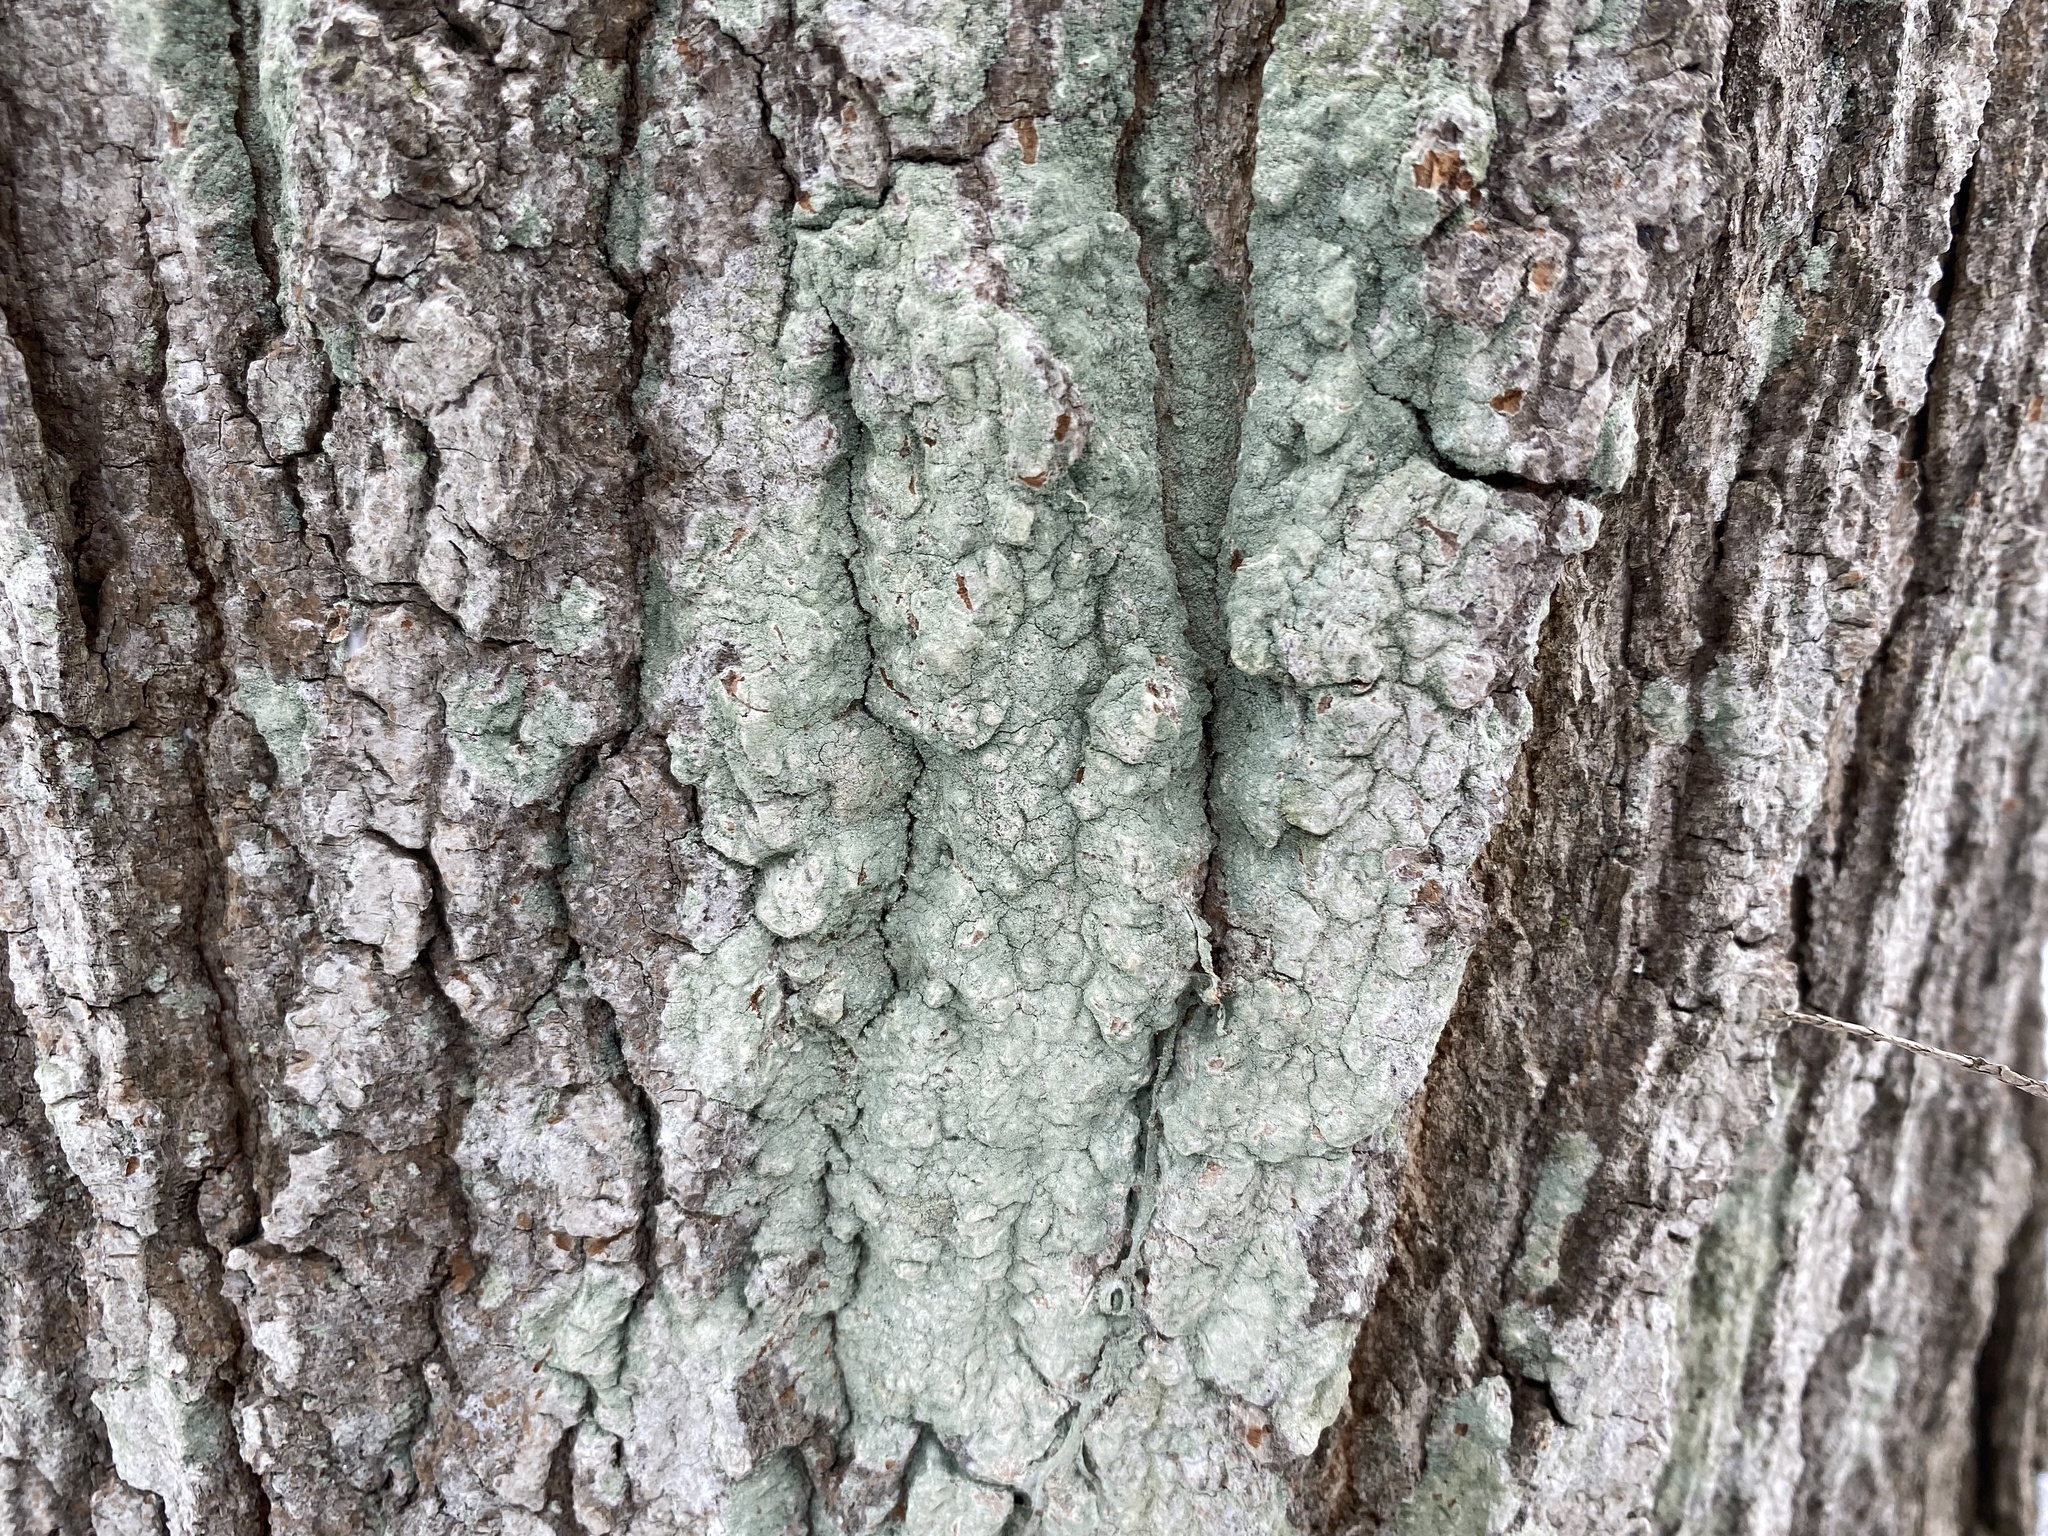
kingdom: Fungi
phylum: Ascomycota
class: Lecanoromycetes
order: Pertusariales
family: Pertusariaceae
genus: Verseghya
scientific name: Verseghya thysanophora
